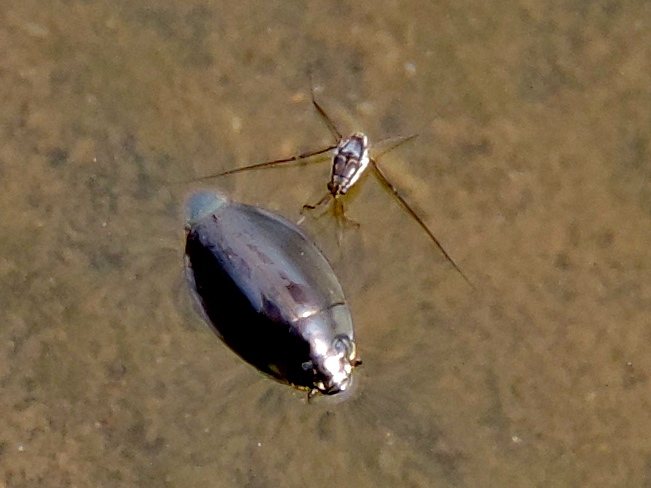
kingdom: Animalia
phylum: Arthropoda
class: Insecta
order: Hemiptera
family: Gerridae
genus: Trepobates
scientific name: Trepobates
